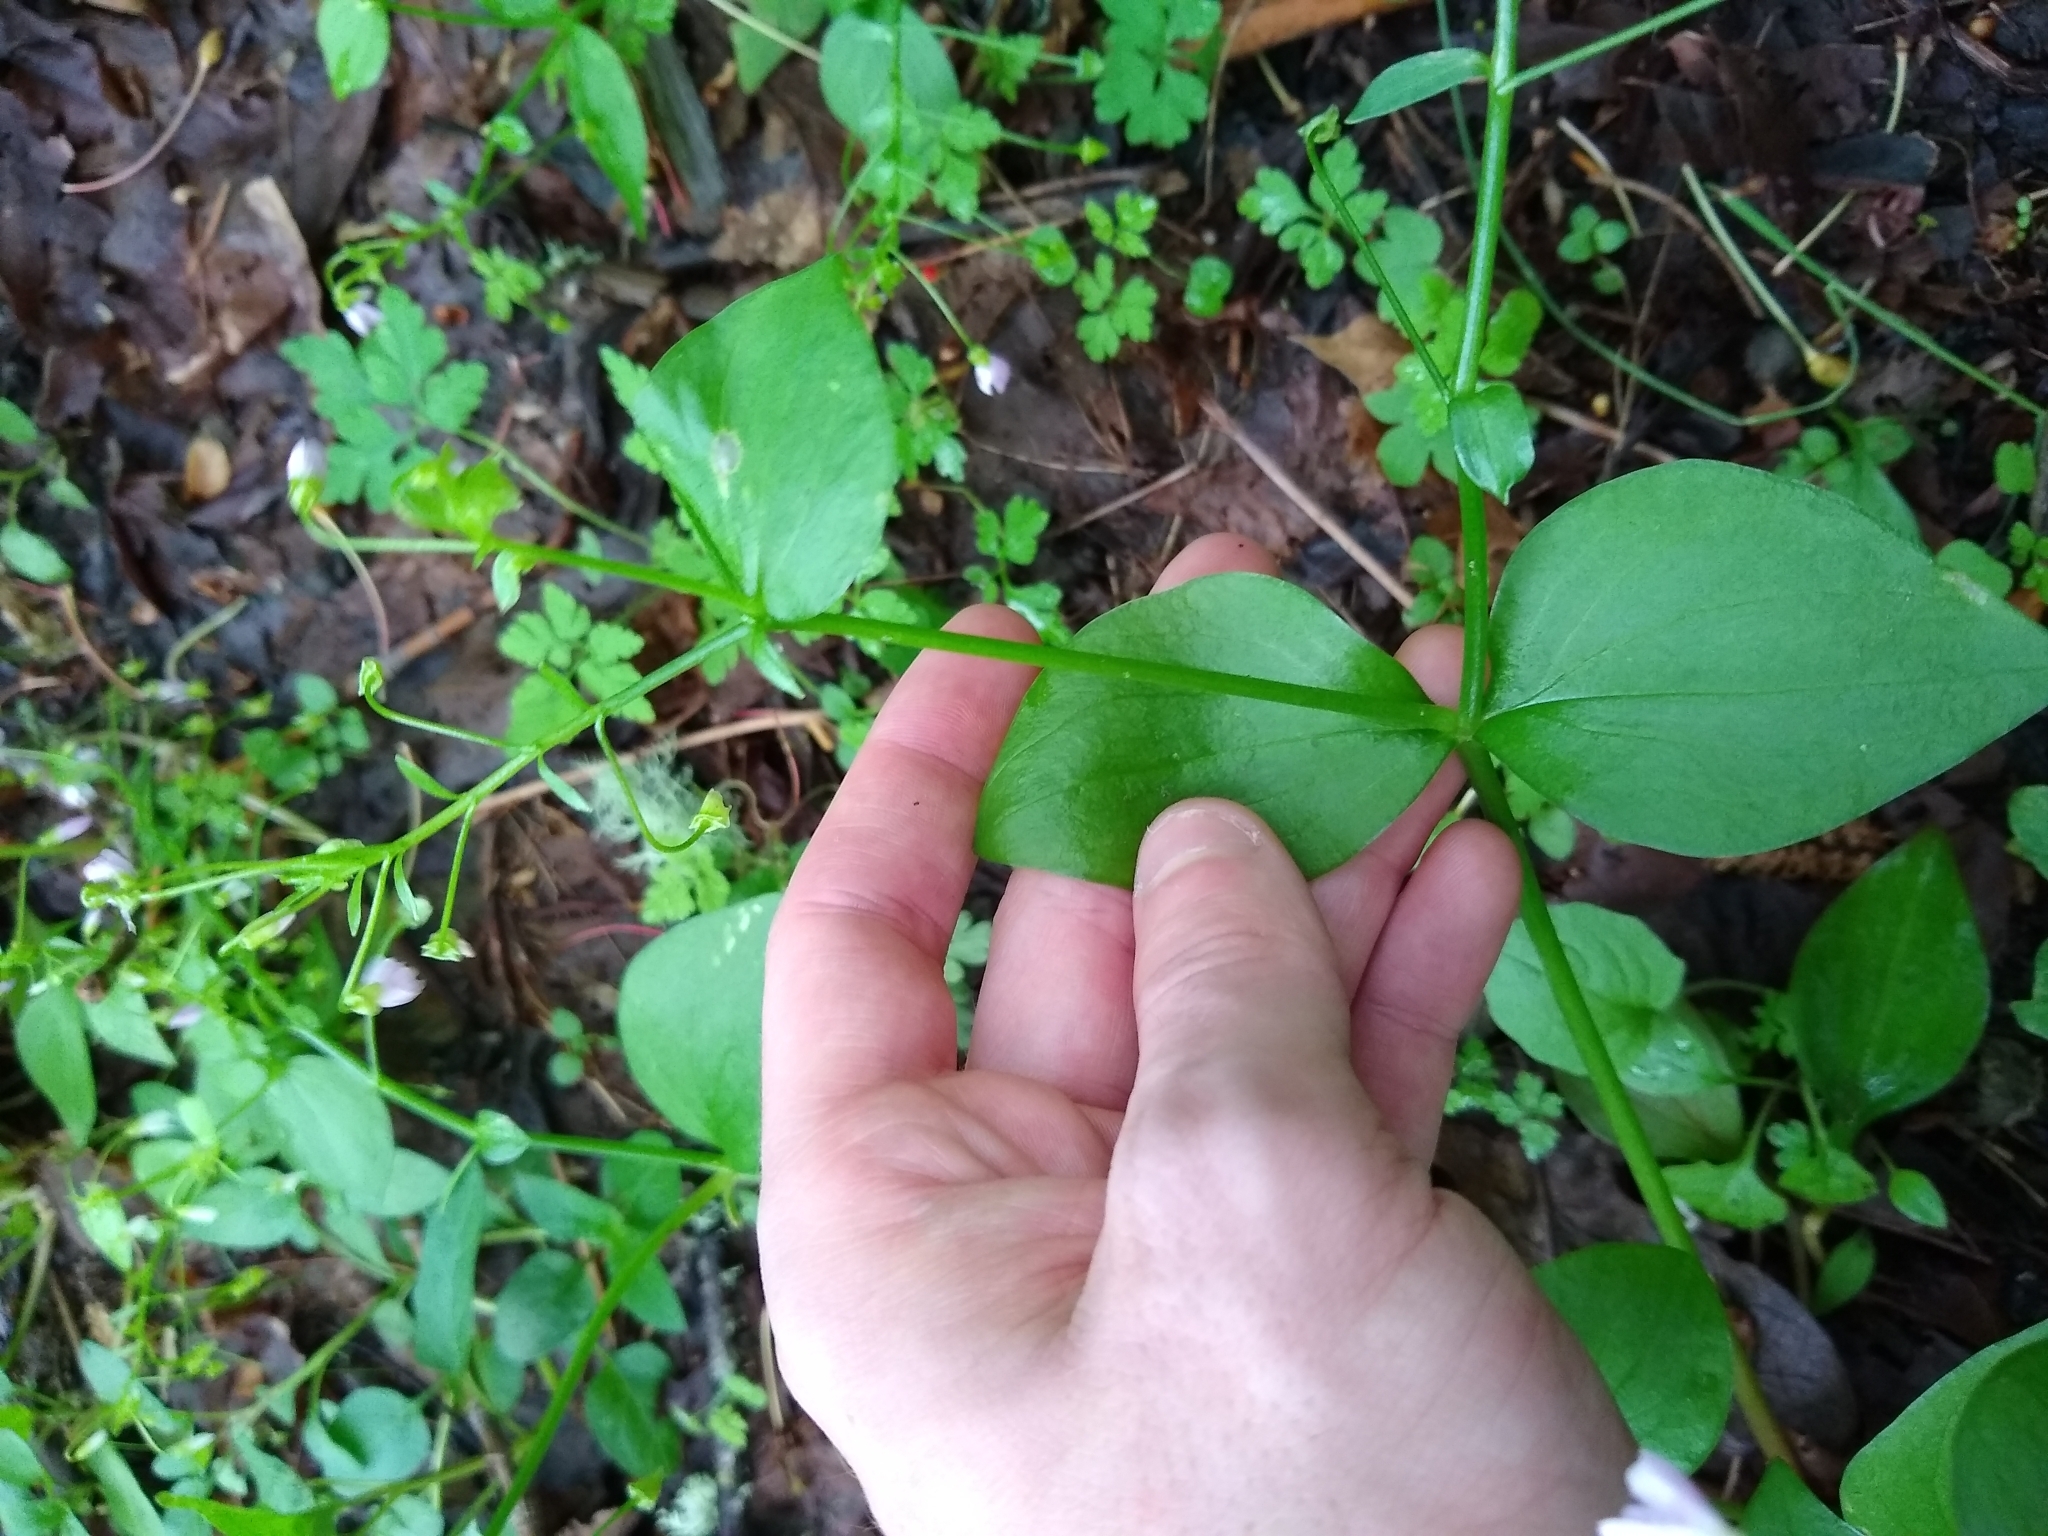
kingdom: Plantae
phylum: Tracheophyta
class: Magnoliopsida
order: Caryophyllales
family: Montiaceae
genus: Claytonia
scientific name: Claytonia sibirica
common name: Pink purslane
